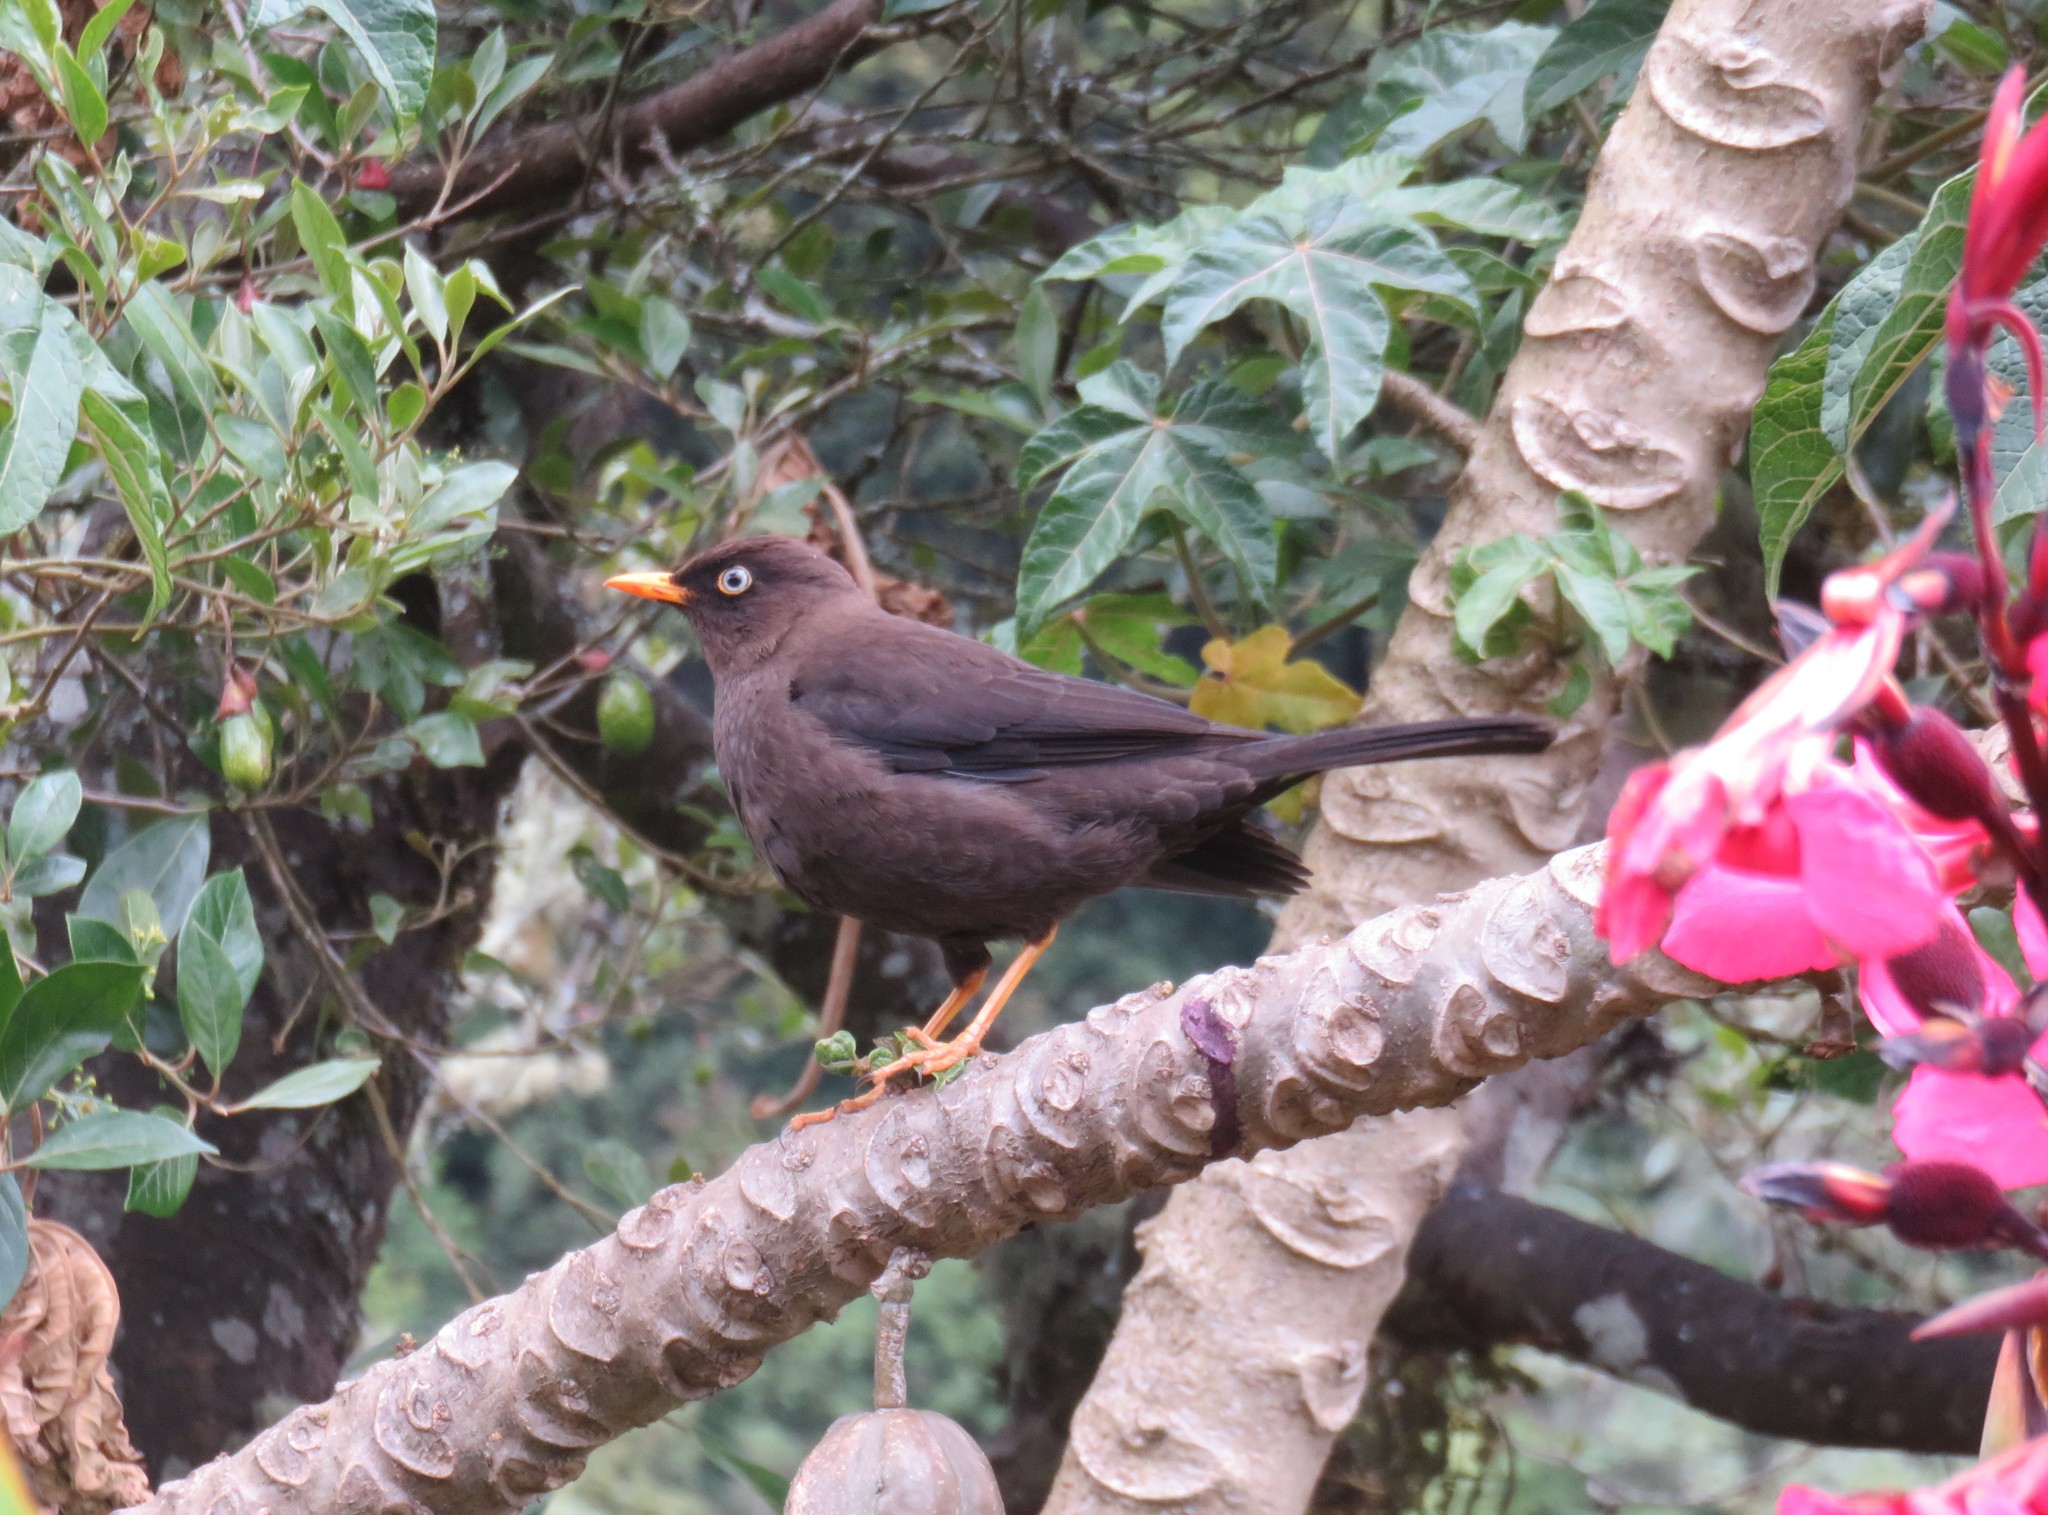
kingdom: Animalia
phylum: Chordata
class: Aves
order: Passeriformes
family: Turdidae
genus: Turdus
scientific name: Turdus nigrescens
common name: Sooty thrush
